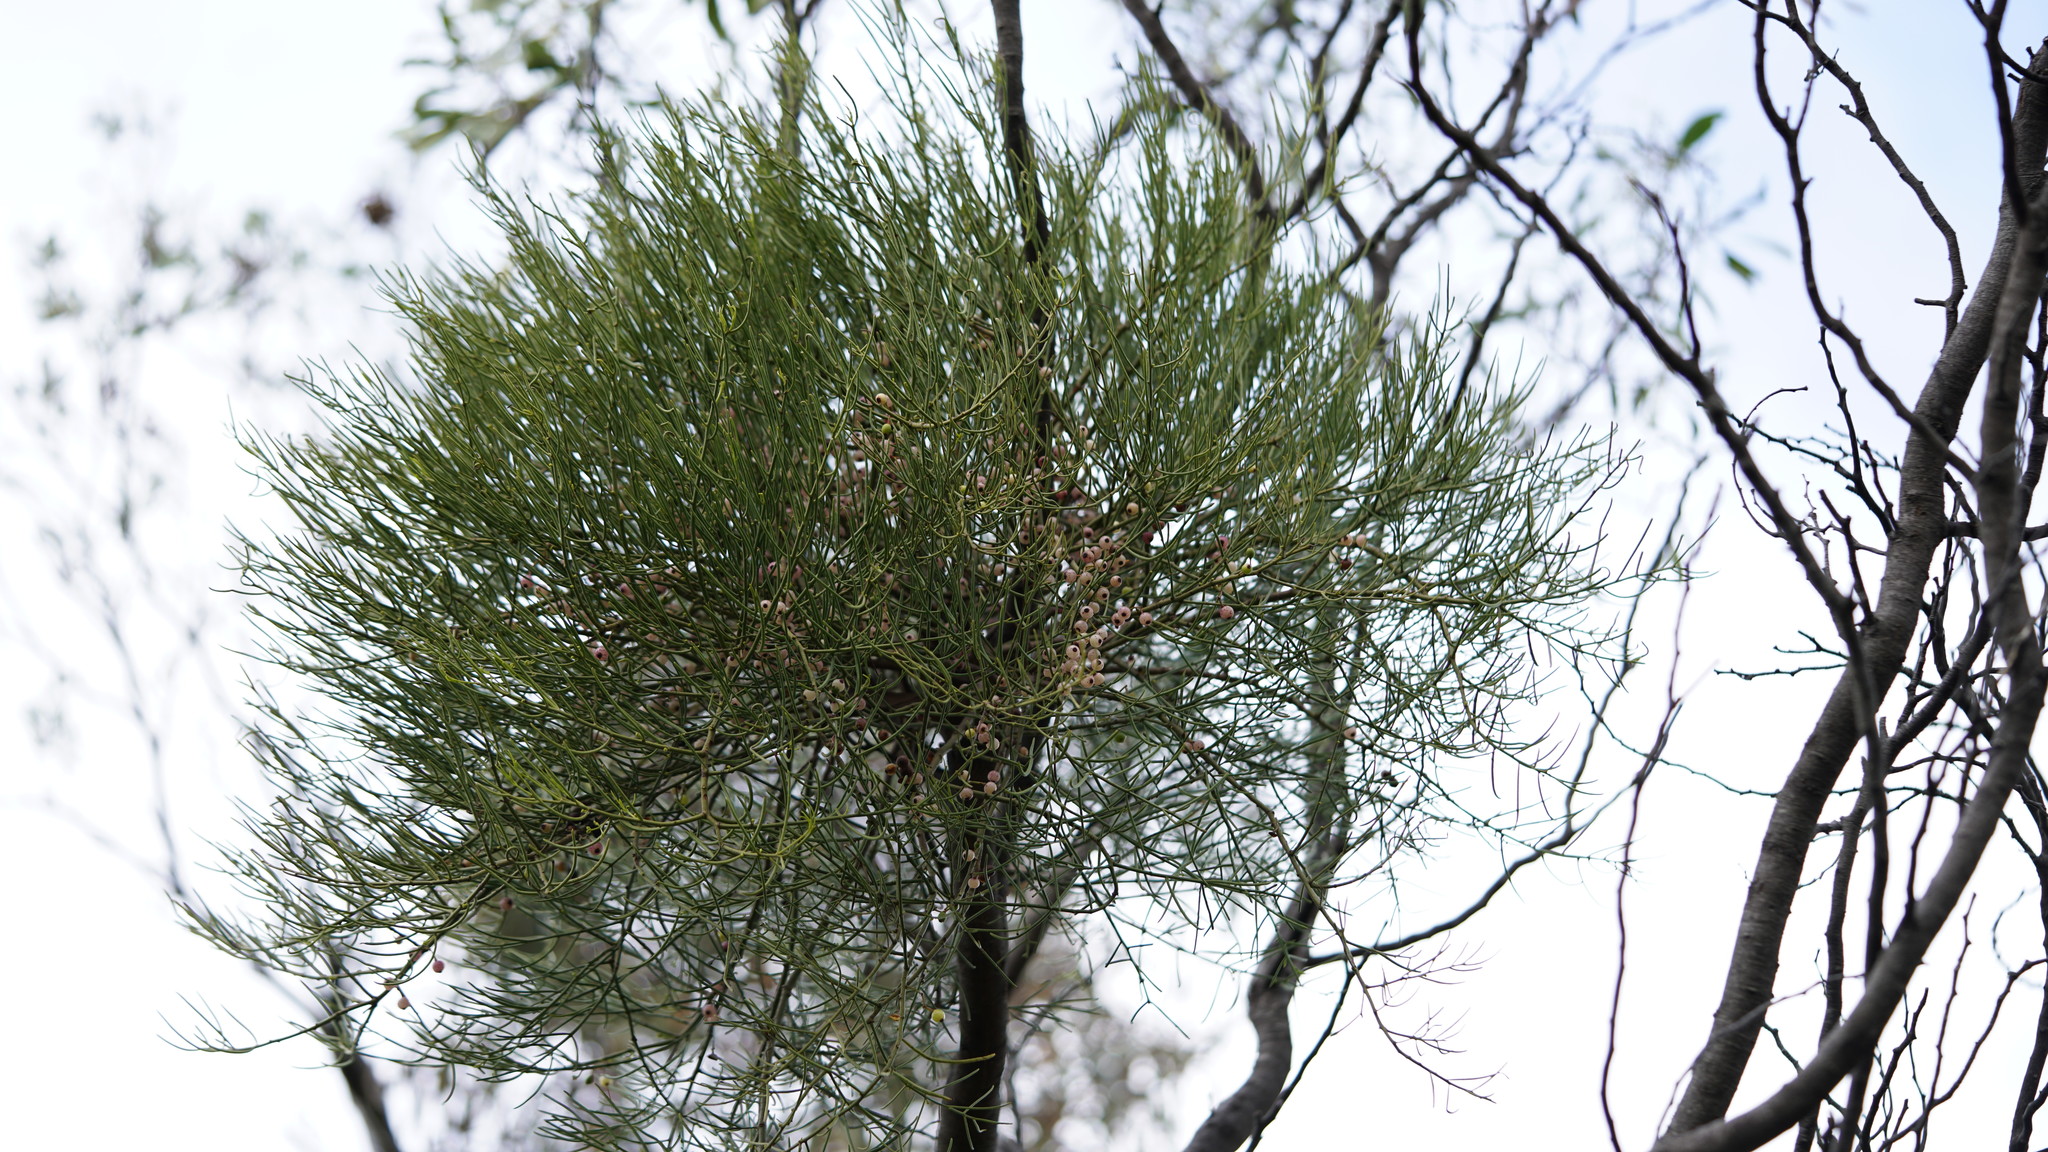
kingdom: Plantae
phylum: Tracheophyta
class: Magnoliopsida
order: Santalales
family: Loranthaceae
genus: Amyema
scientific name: Amyema preissii
